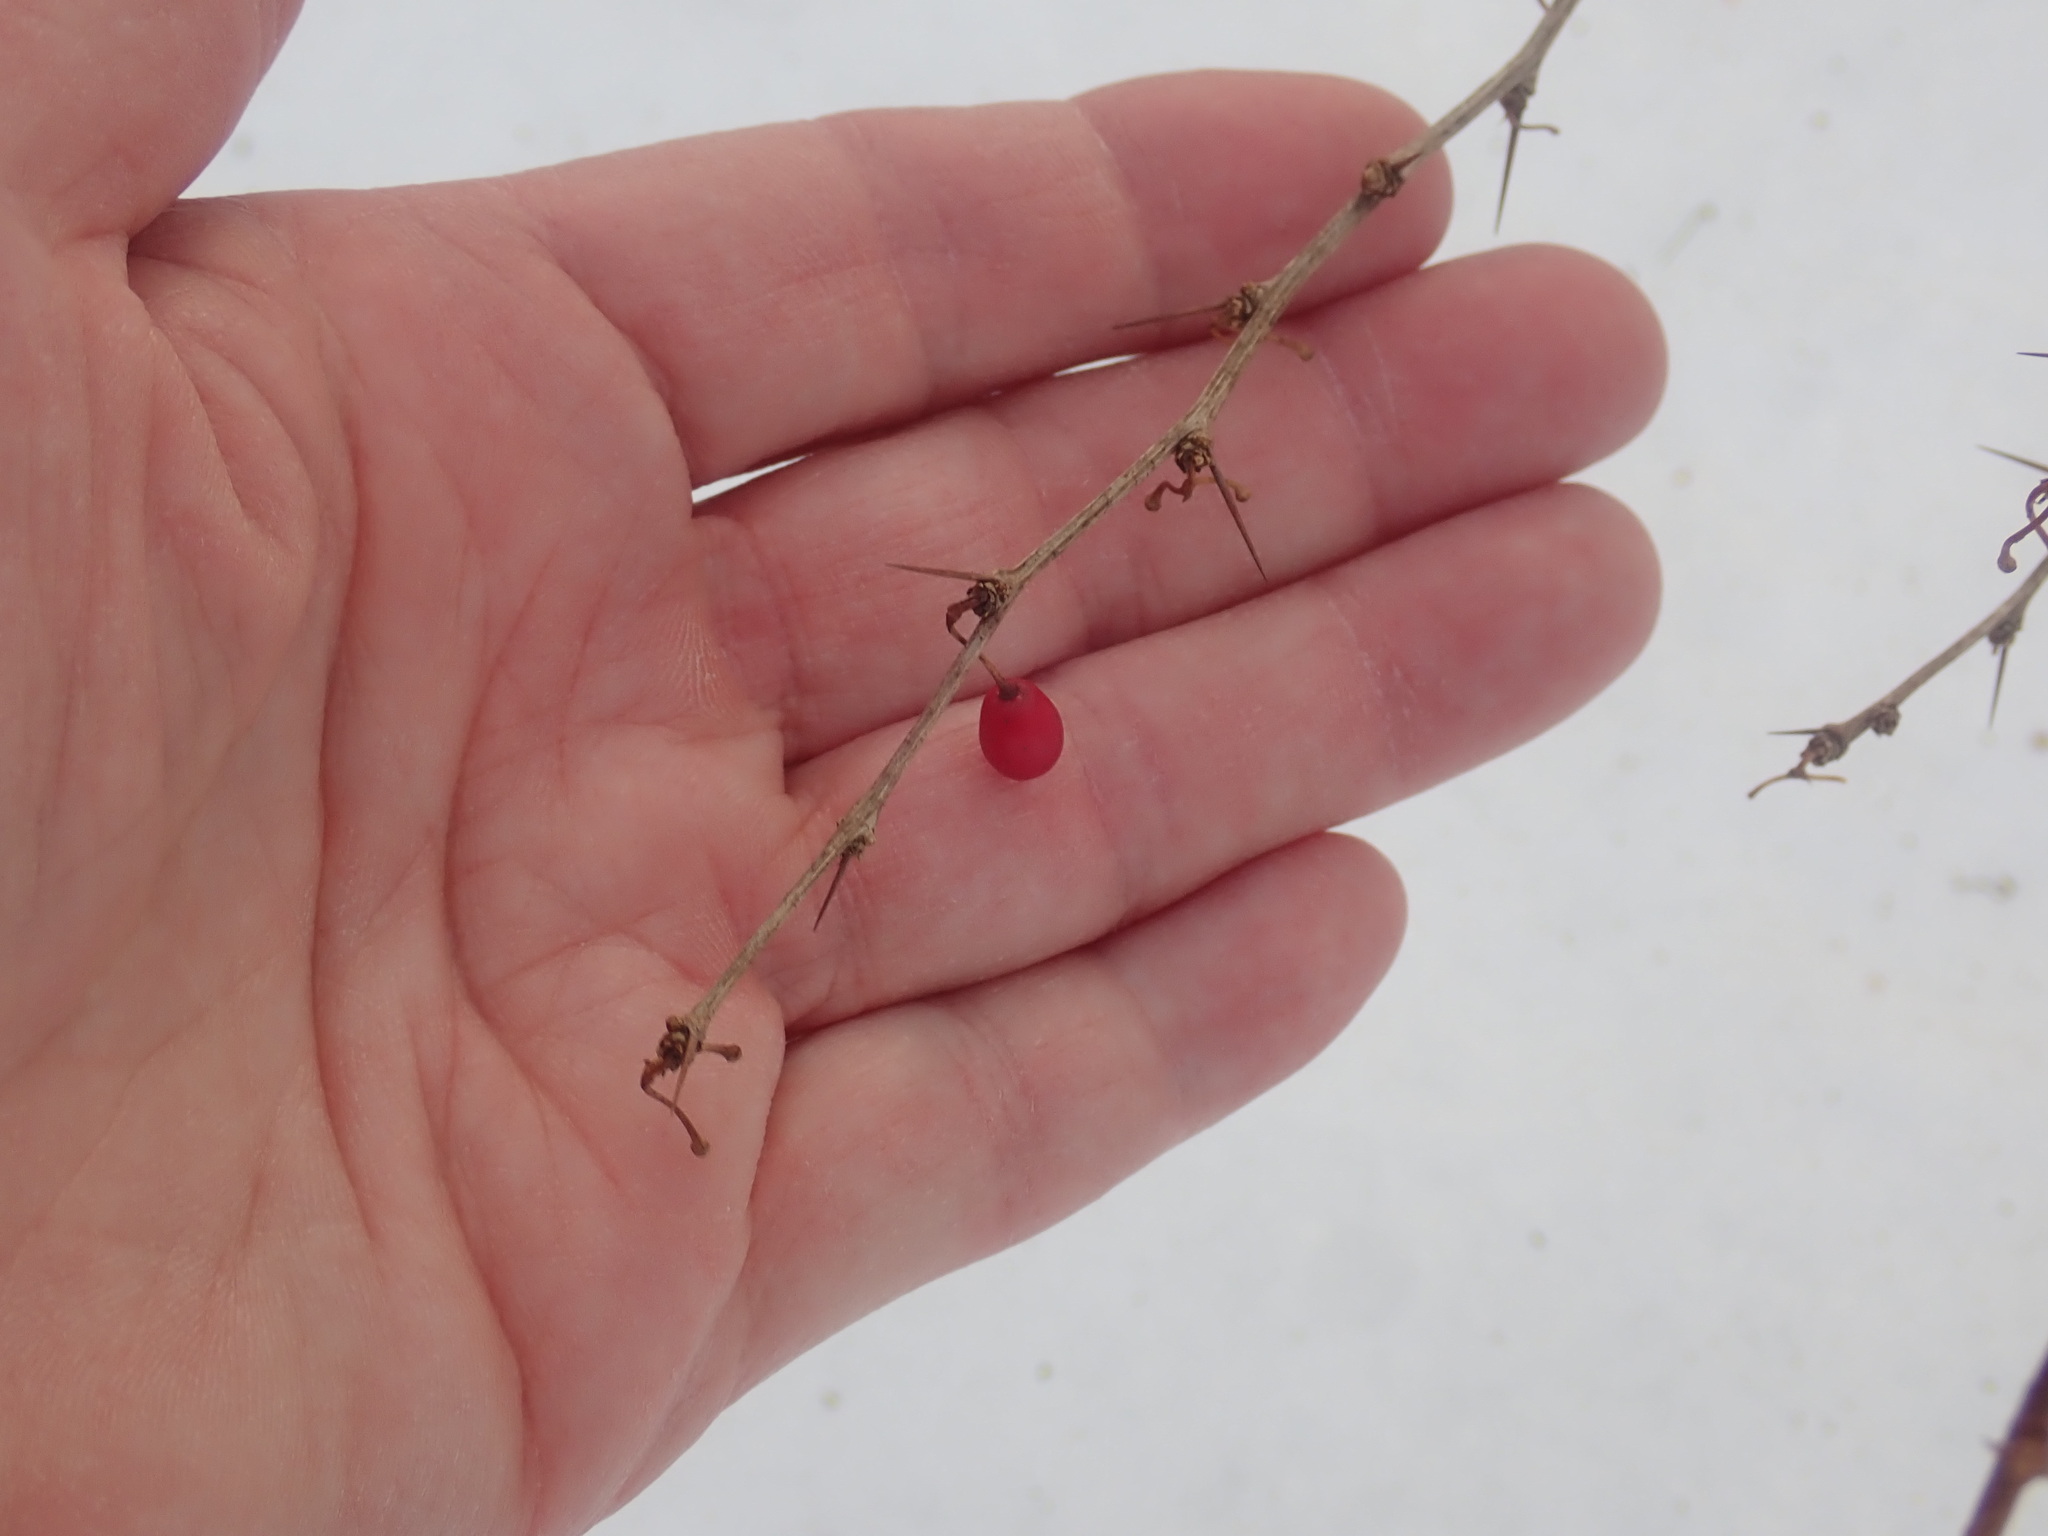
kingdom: Plantae
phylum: Tracheophyta
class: Magnoliopsida
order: Ranunculales
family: Berberidaceae
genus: Berberis
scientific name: Berberis thunbergii
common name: Japanese barberry
